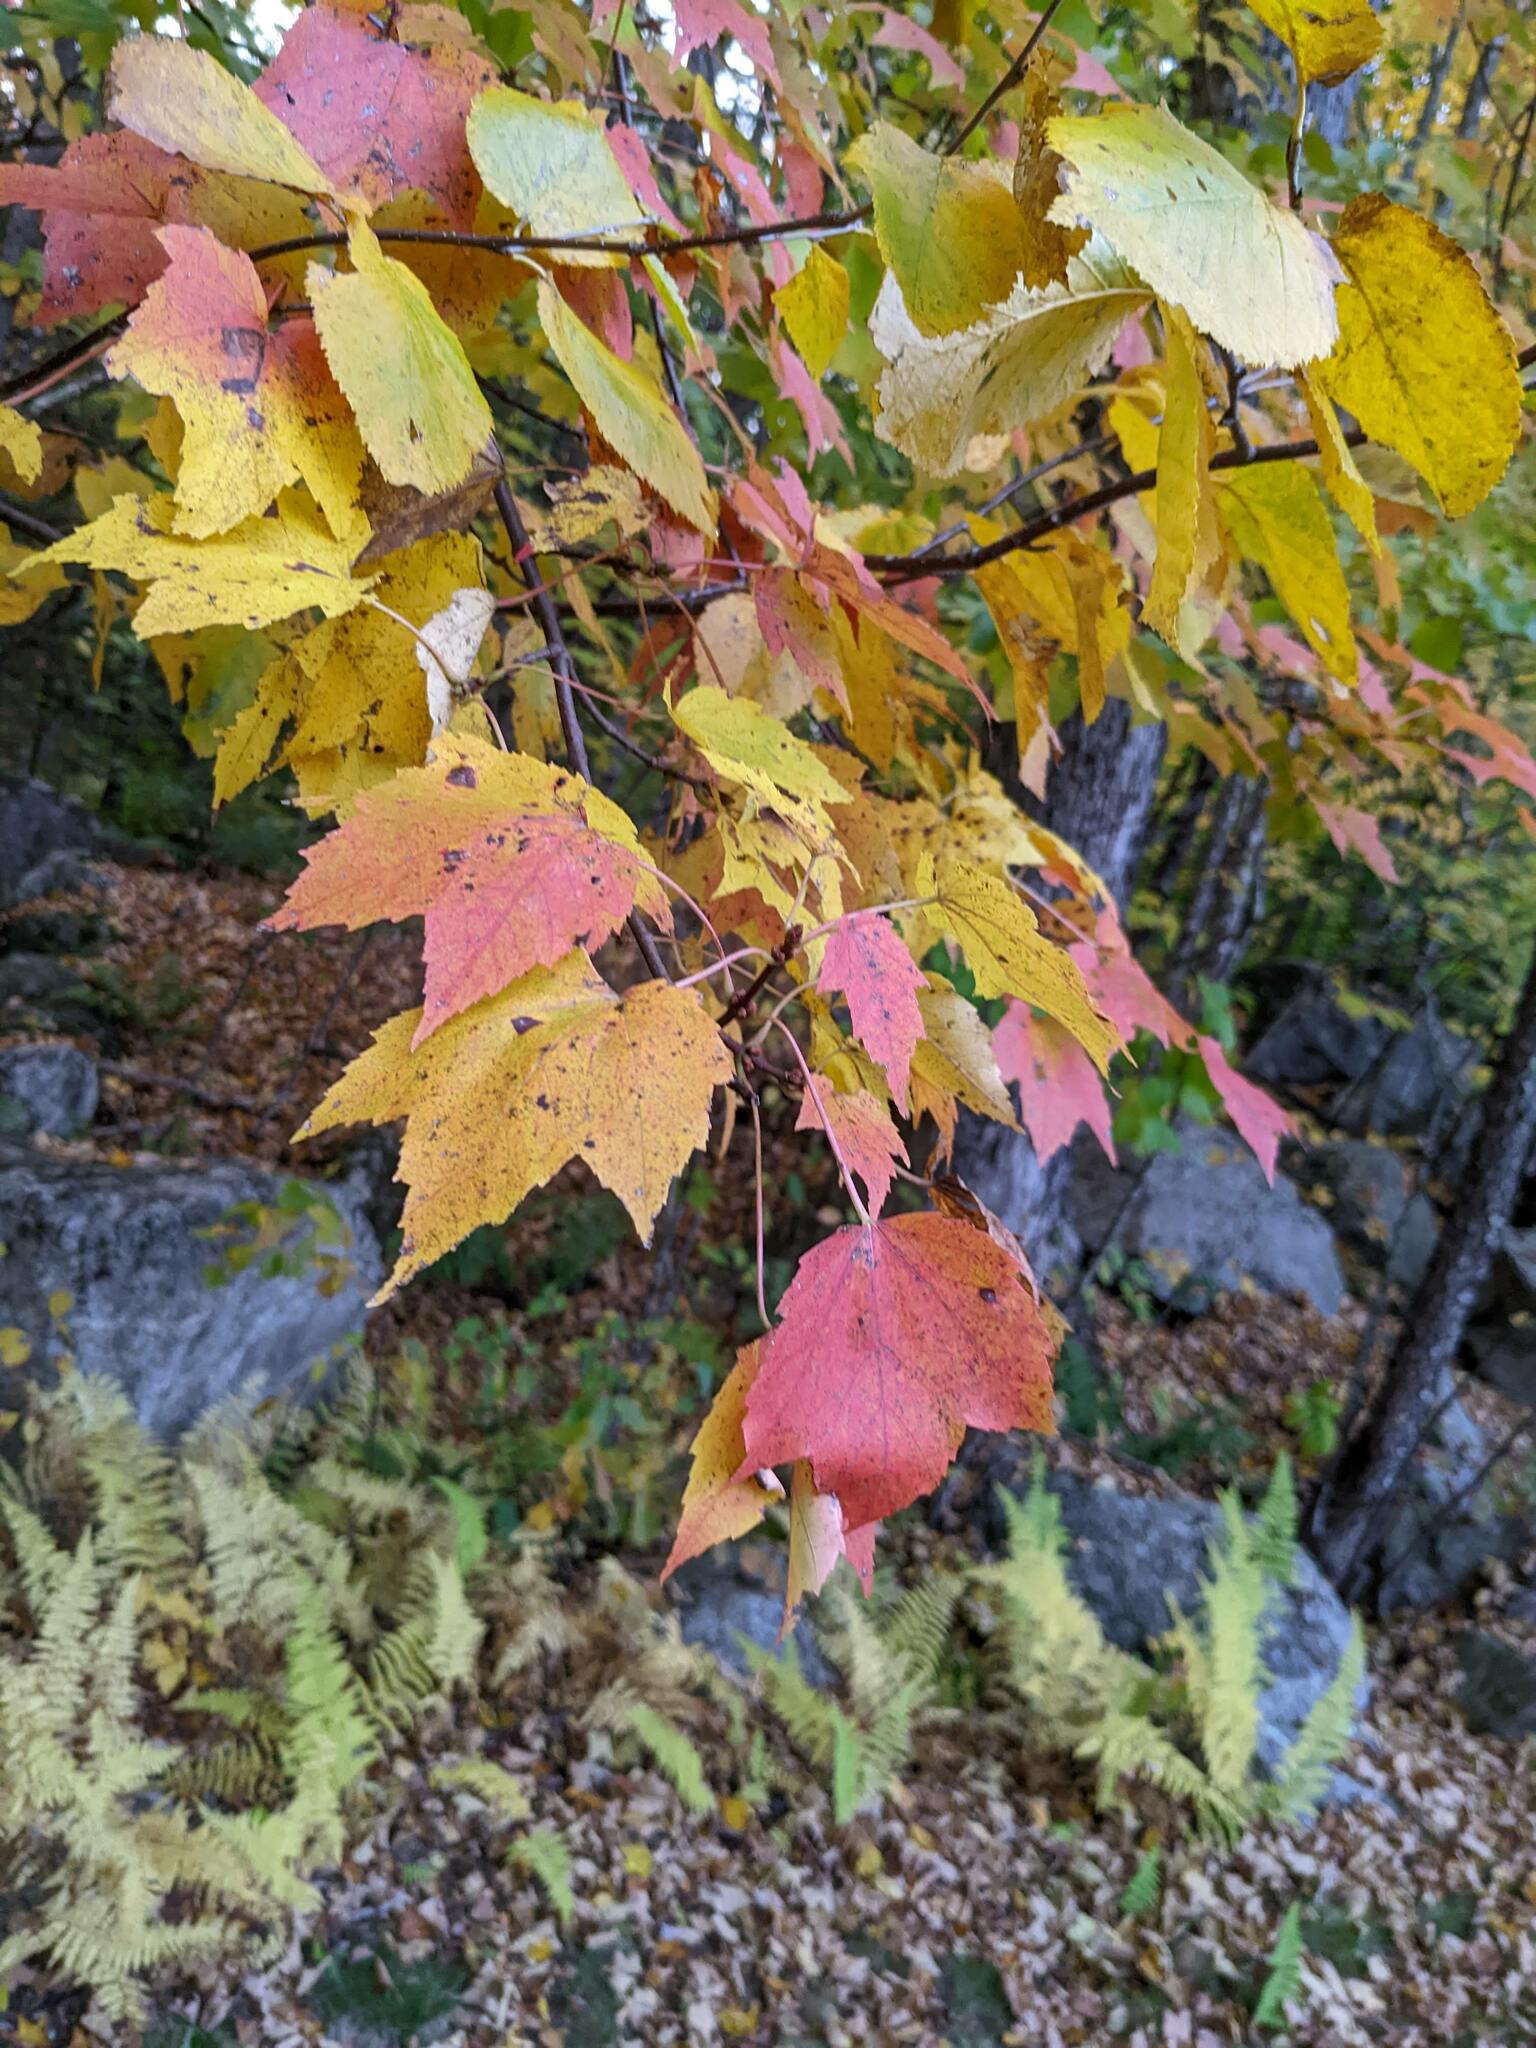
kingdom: Plantae
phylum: Tracheophyta
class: Magnoliopsida
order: Sapindales
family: Sapindaceae
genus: Acer
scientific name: Acer rubrum
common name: Red maple
